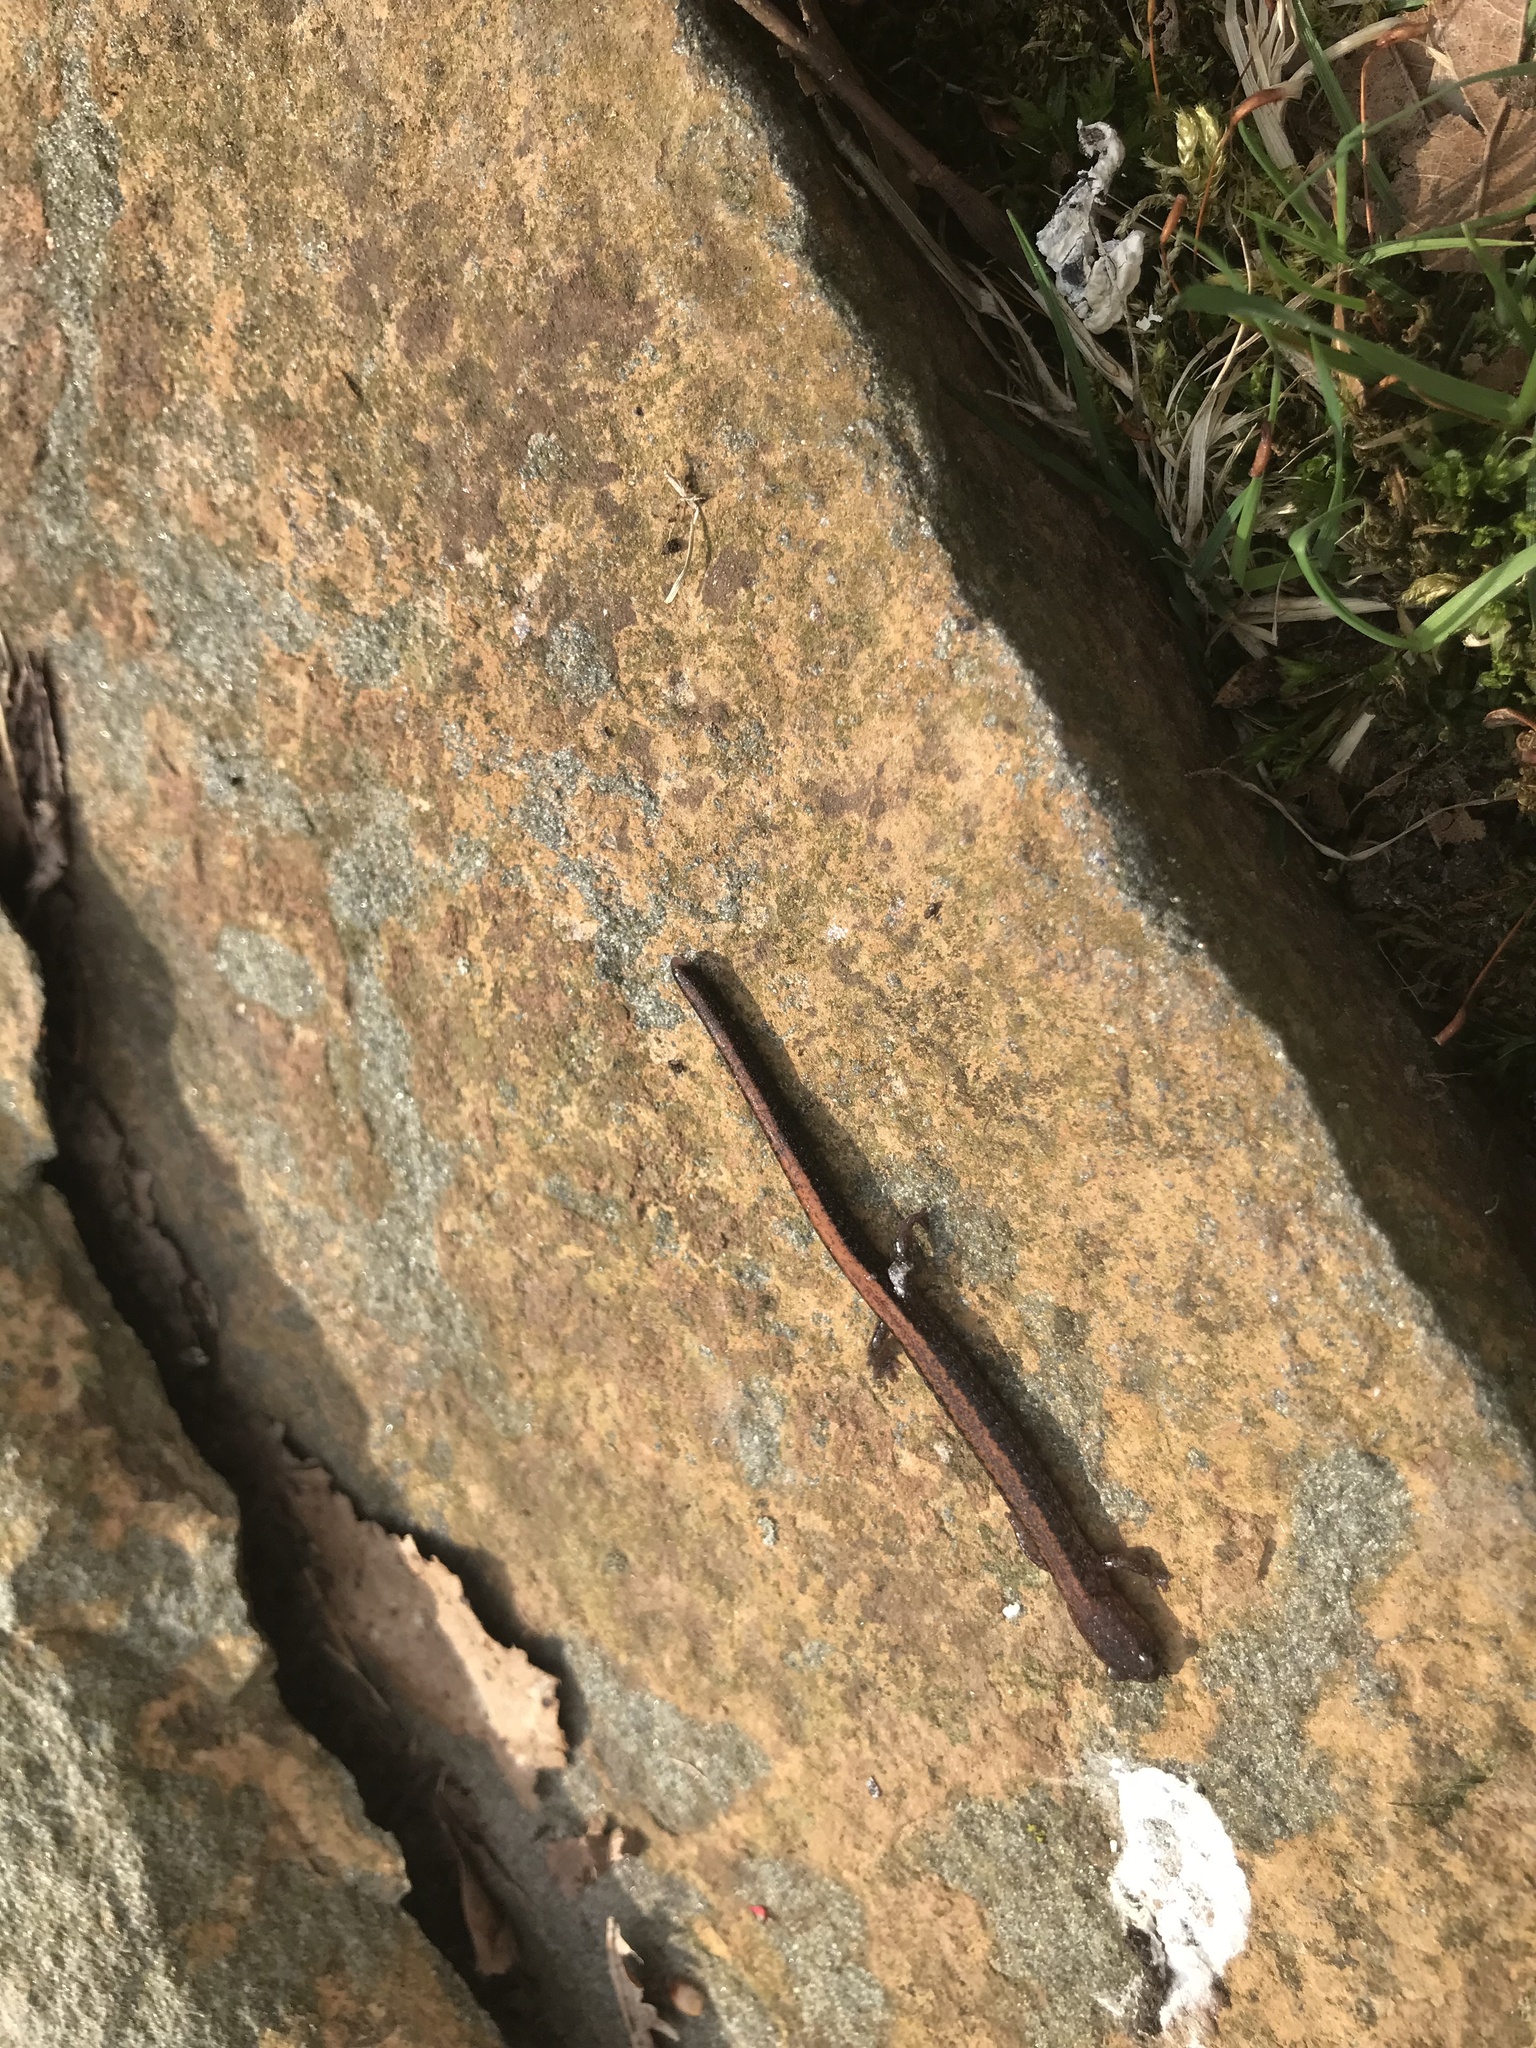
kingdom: Animalia
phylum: Chordata
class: Amphibia
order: Caudata
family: Plethodontidae
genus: Plethodon
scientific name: Plethodon cinereus
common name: Redback salamander
